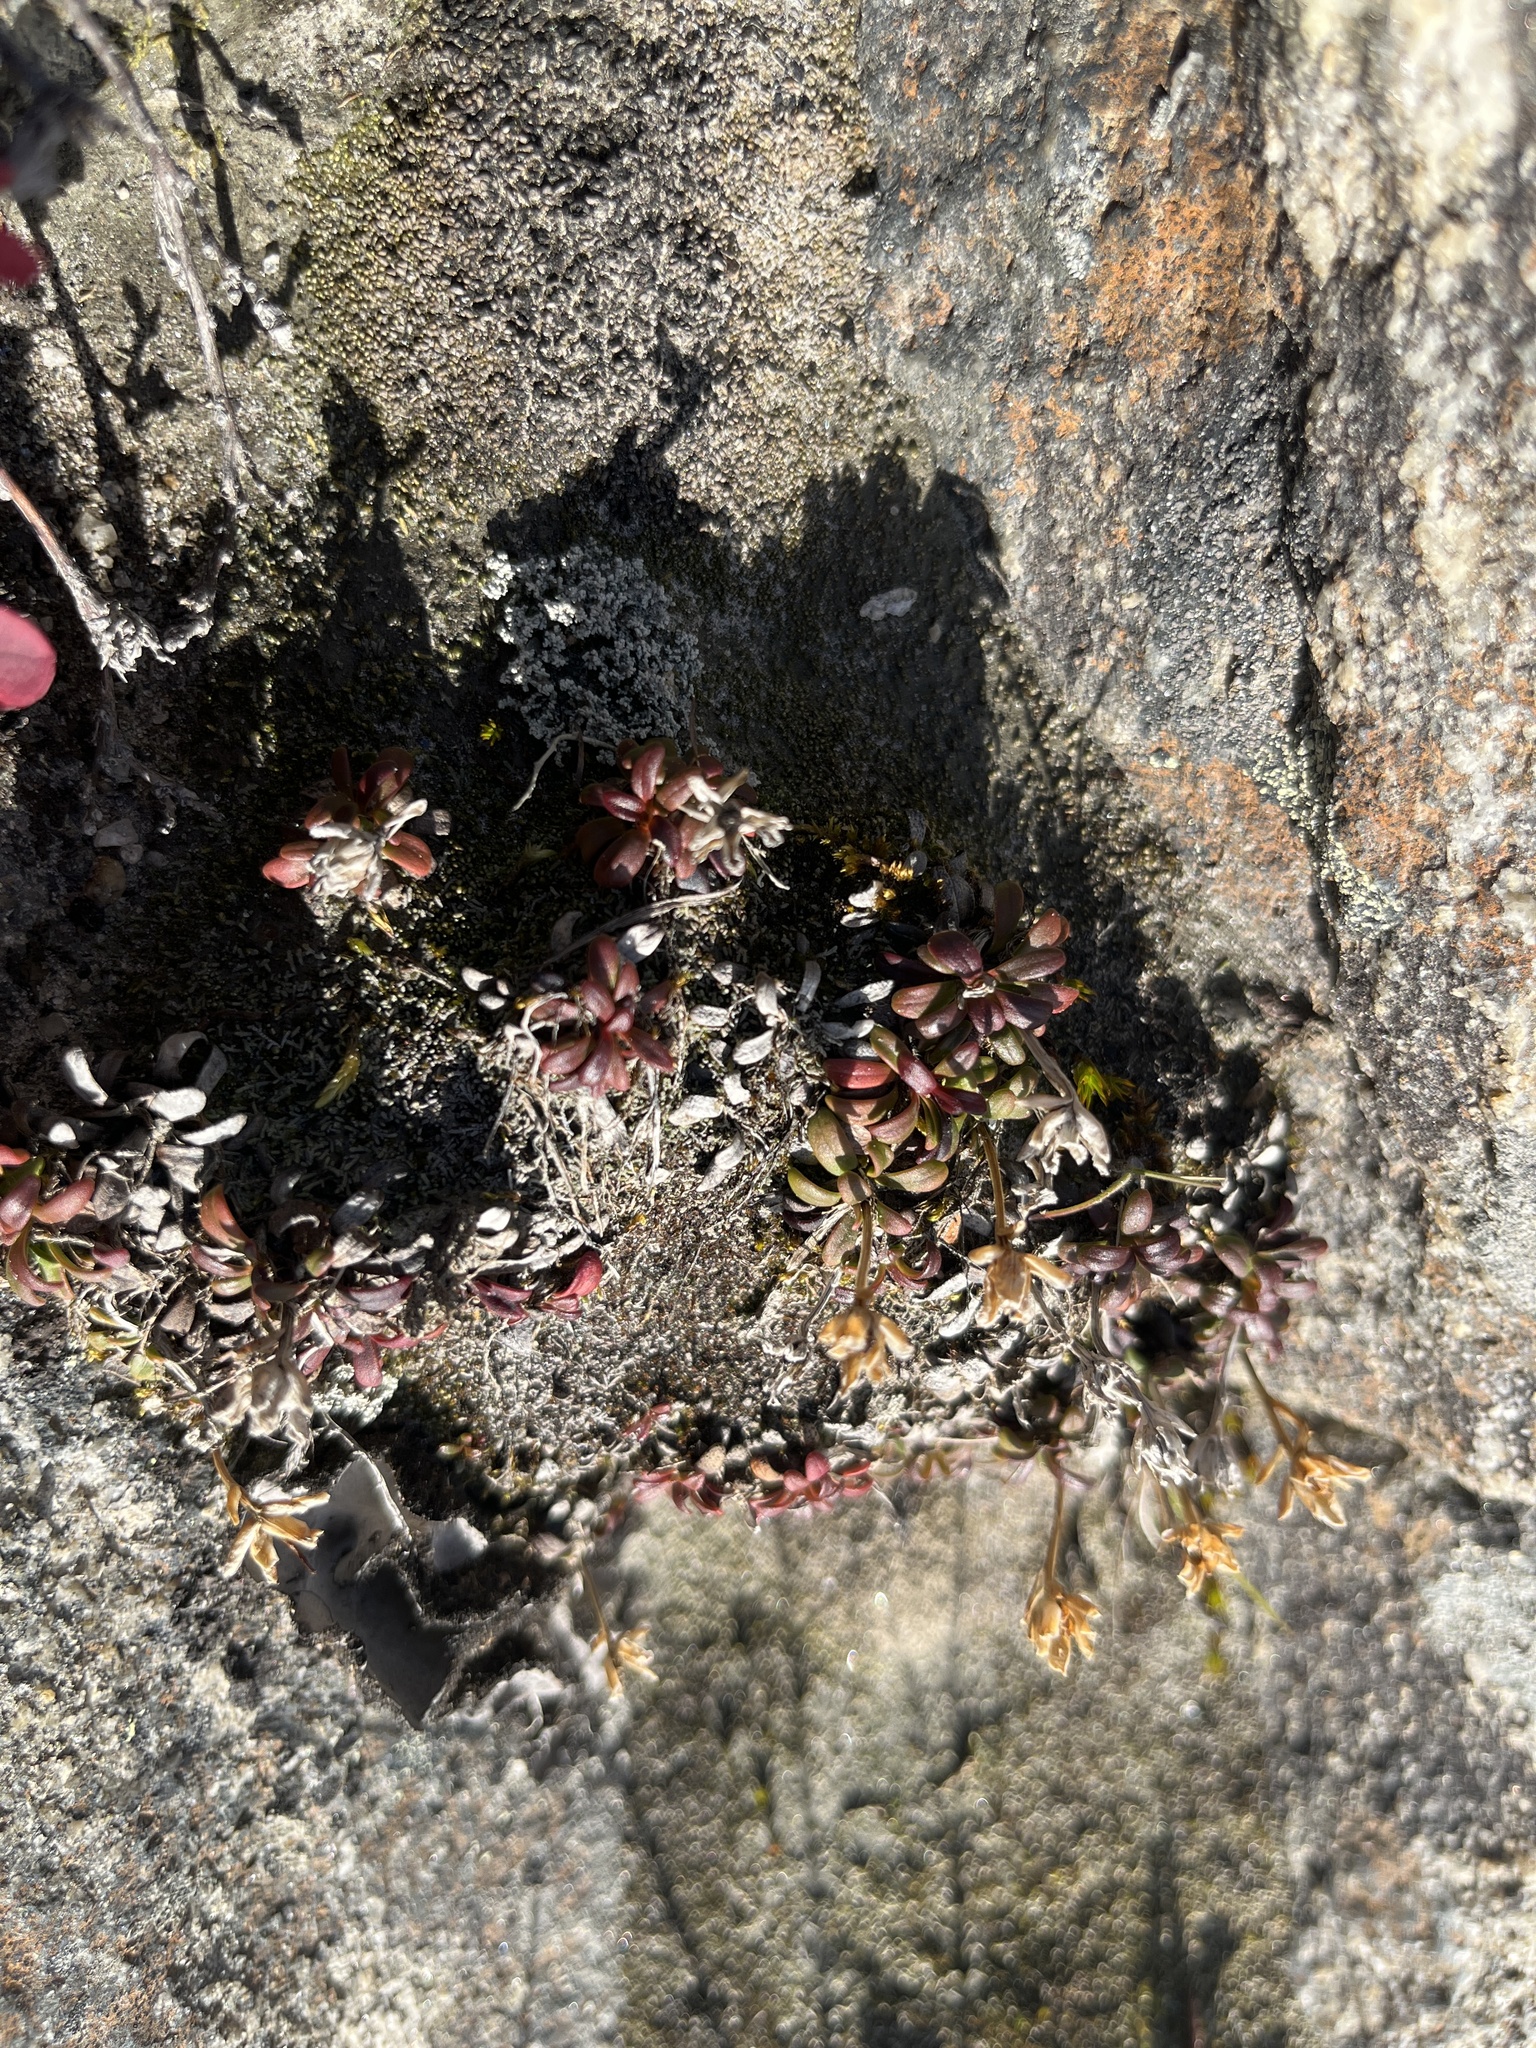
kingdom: Plantae
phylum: Tracheophyta
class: Magnoliopsida
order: Ericales
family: Diapensiaceae
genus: Diapensia
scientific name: Diapensia lapponica
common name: Diapensia
